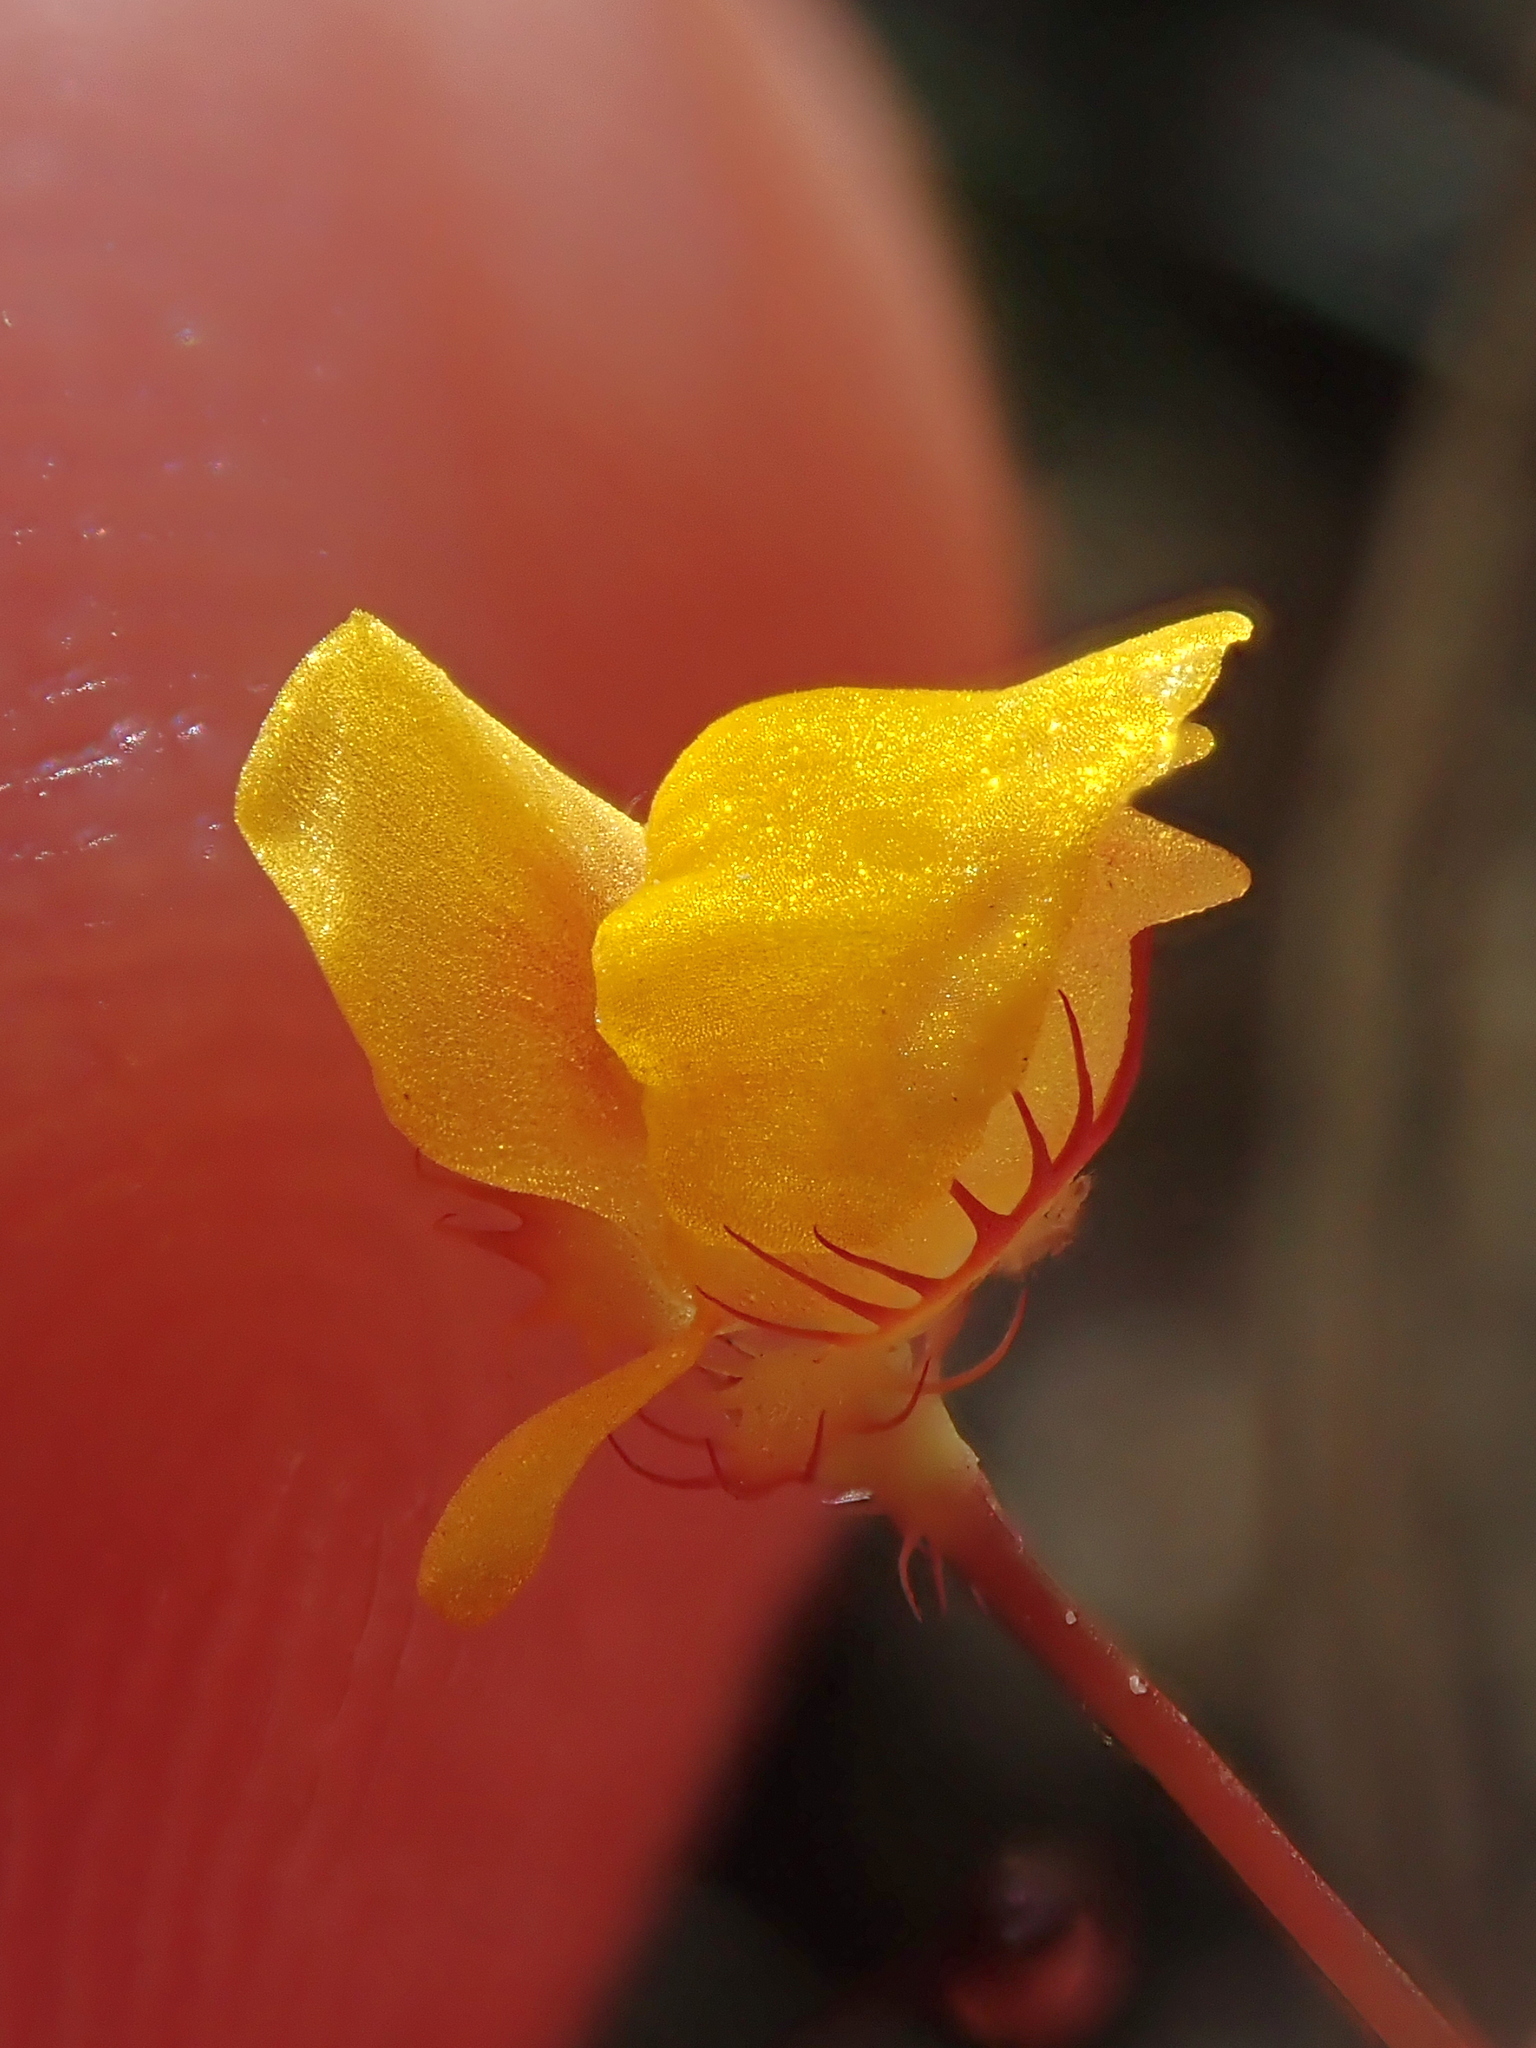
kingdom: Plantae
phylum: Tracheophyta
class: Magnoliopsida
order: Lamiales
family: Lentibulariaceae
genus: Utricularia
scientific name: Utricularia simulans
